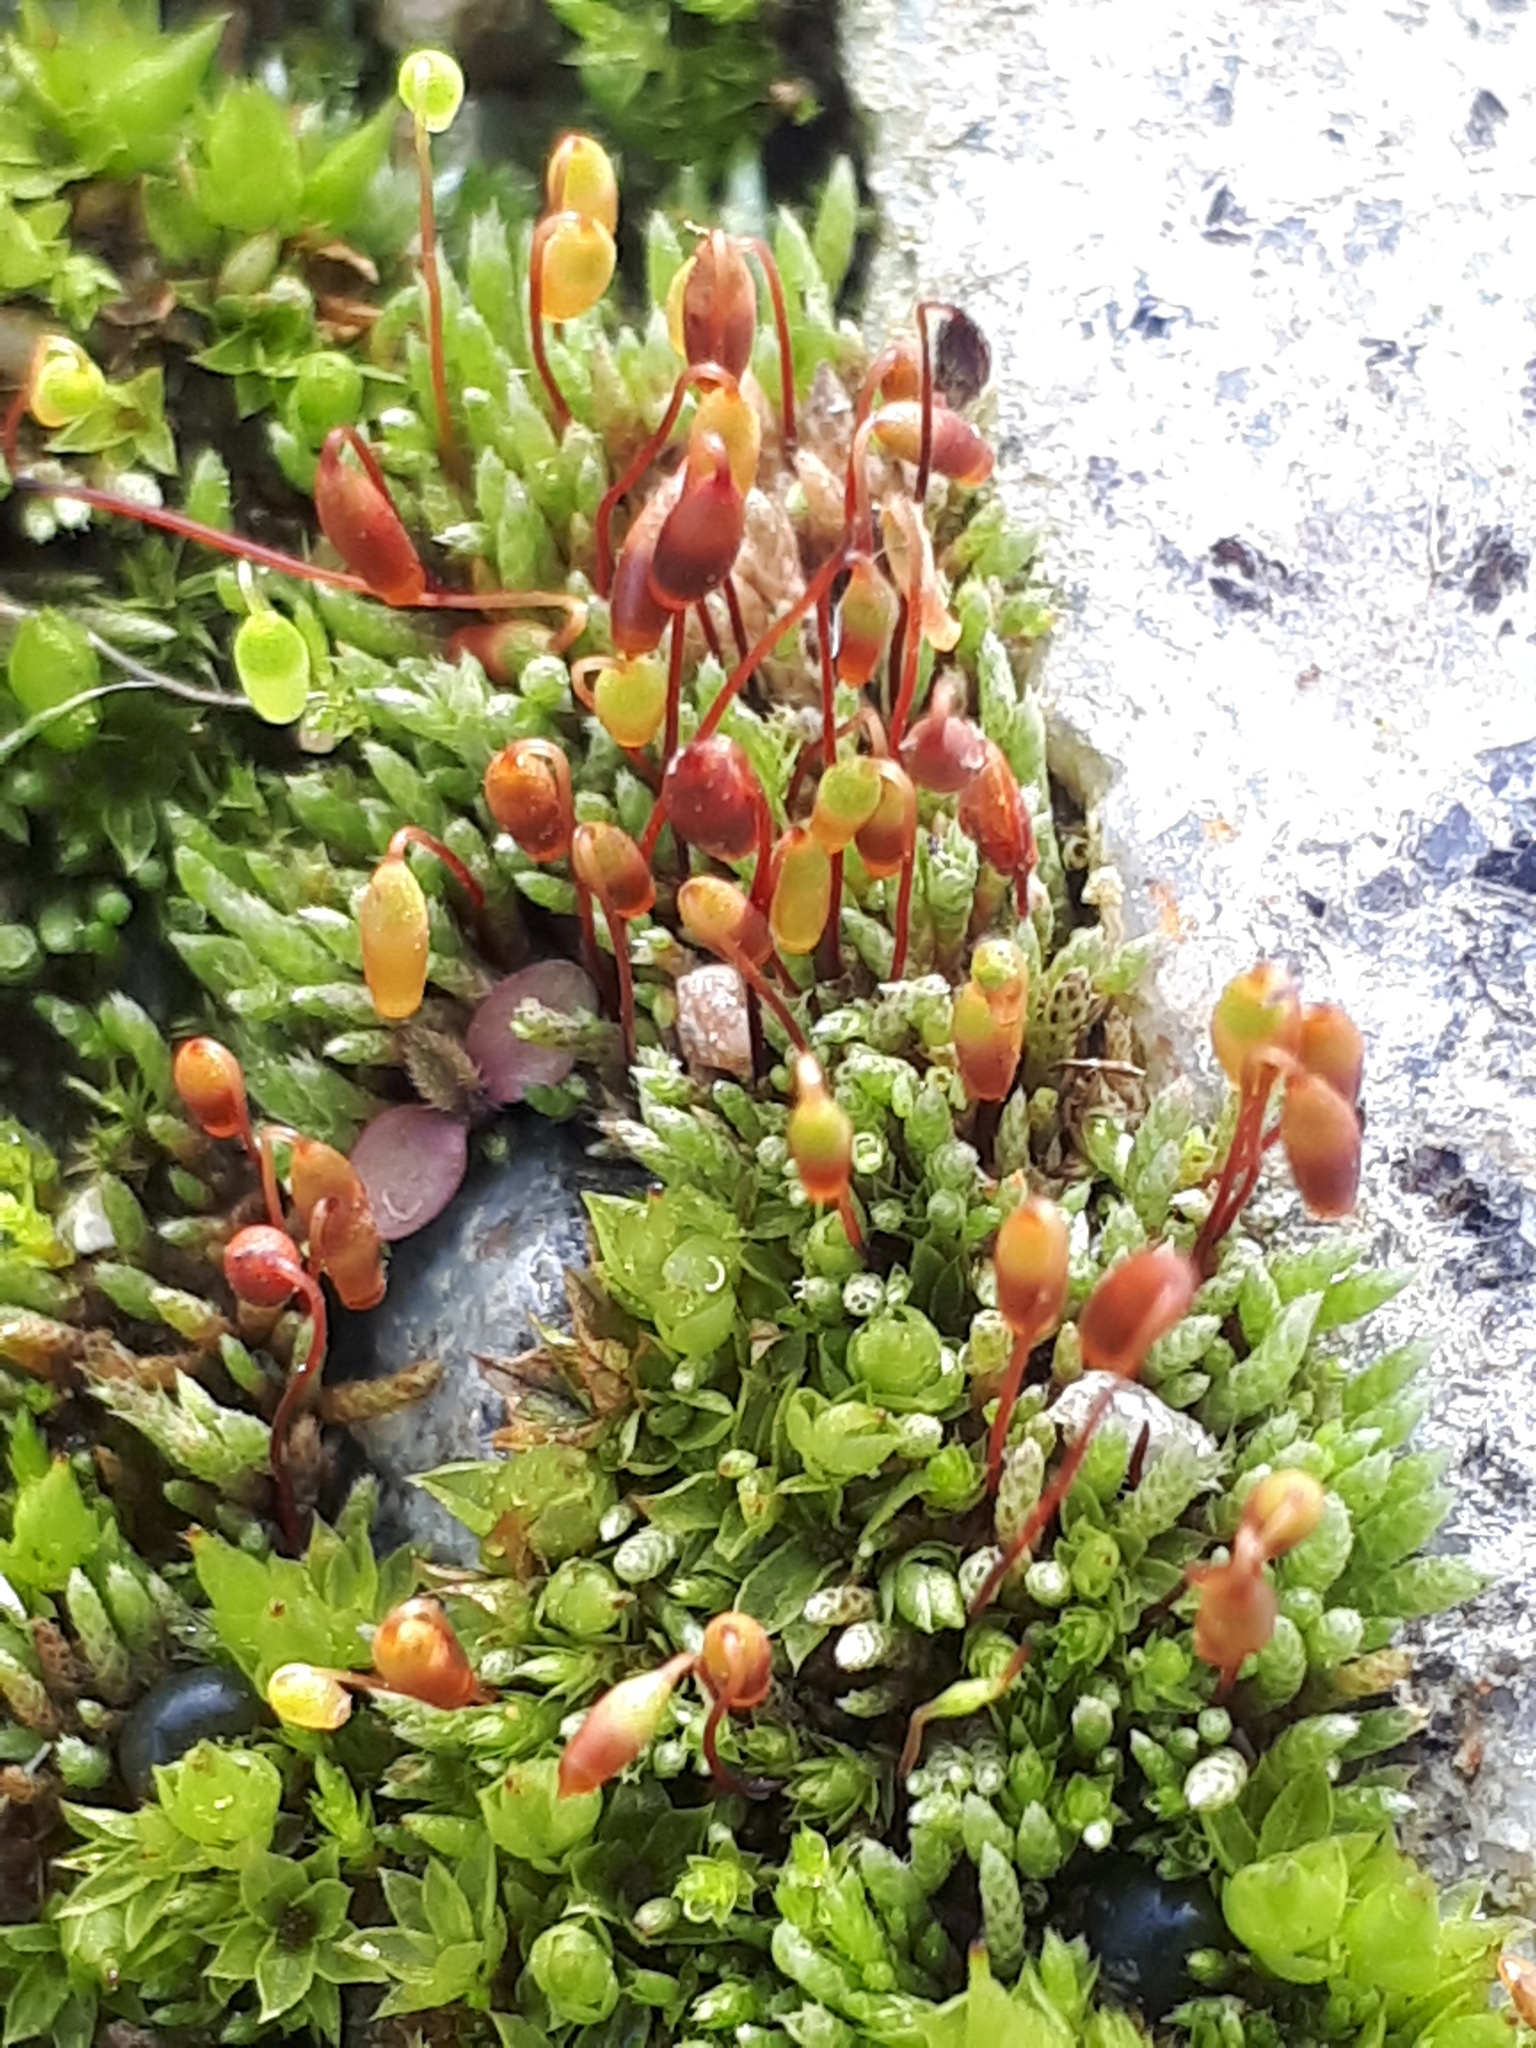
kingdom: Plantae
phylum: Bryophyta
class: Bryopsida
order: Bryales
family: Bryaceae
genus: Bryum
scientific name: Bryum argenteum
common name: Silver-moss
